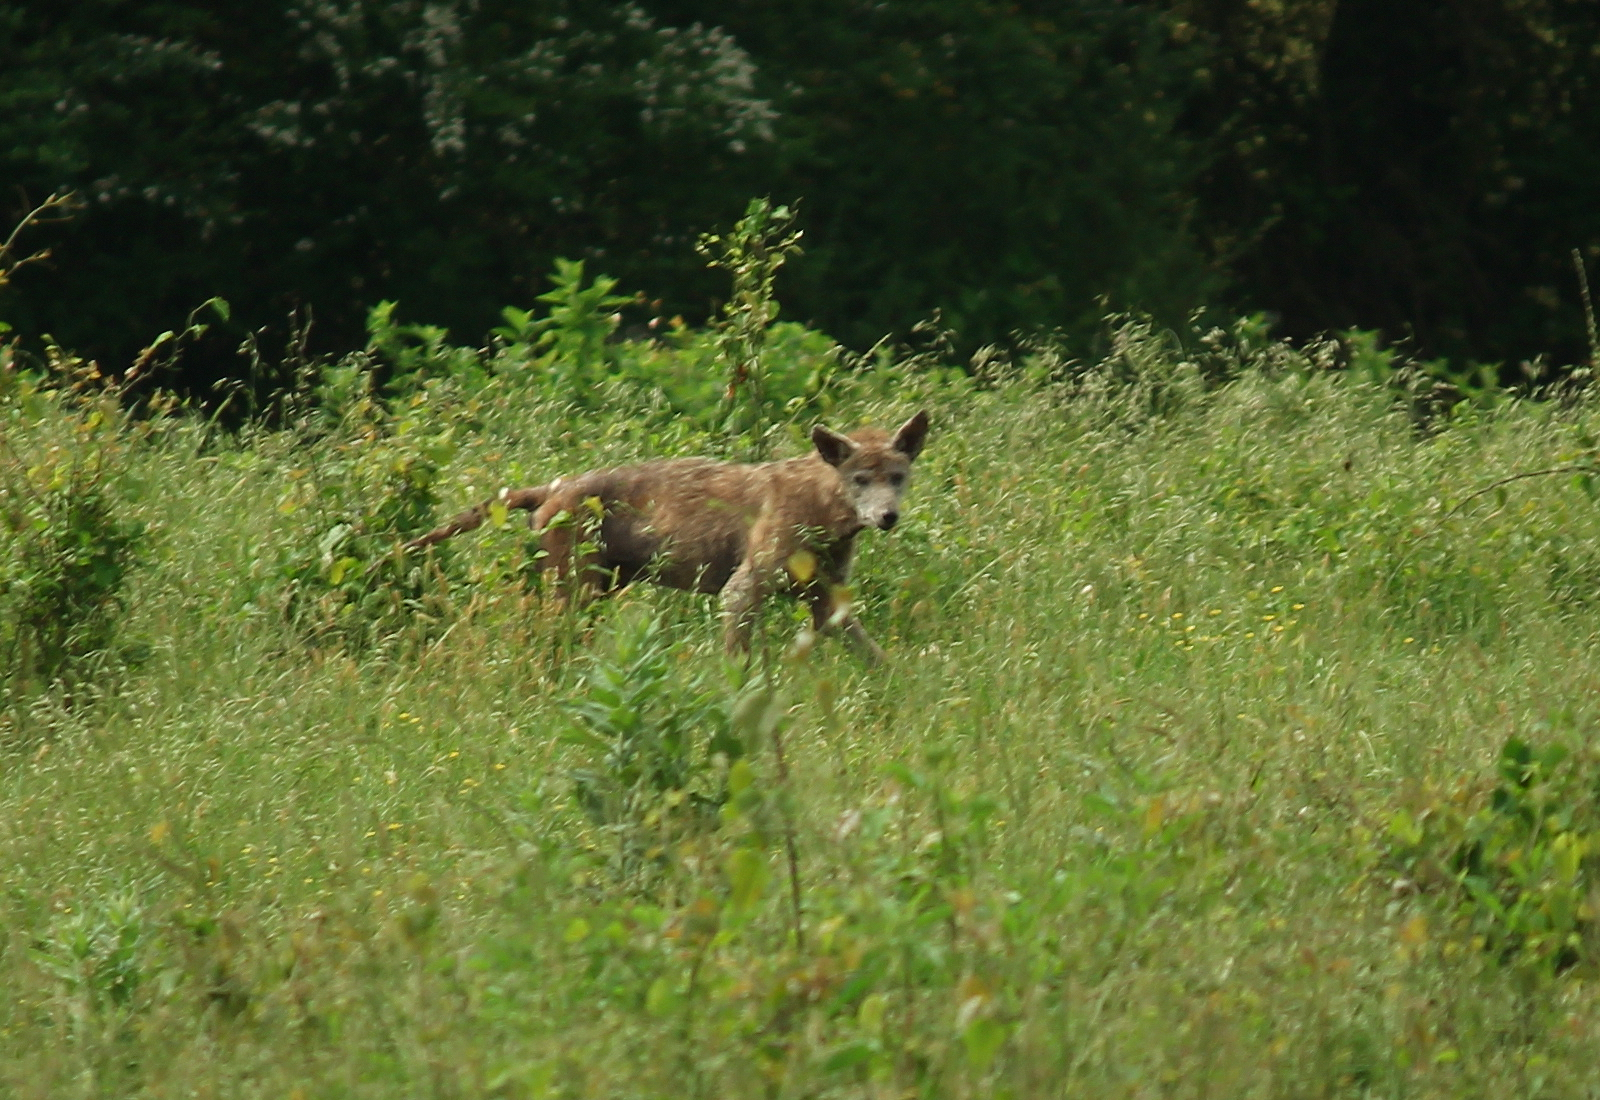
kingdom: Animalia
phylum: Chordata
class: Mammalia
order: Carnivora
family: Canidae
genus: Canis
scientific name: Canis latrans
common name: Coyote
